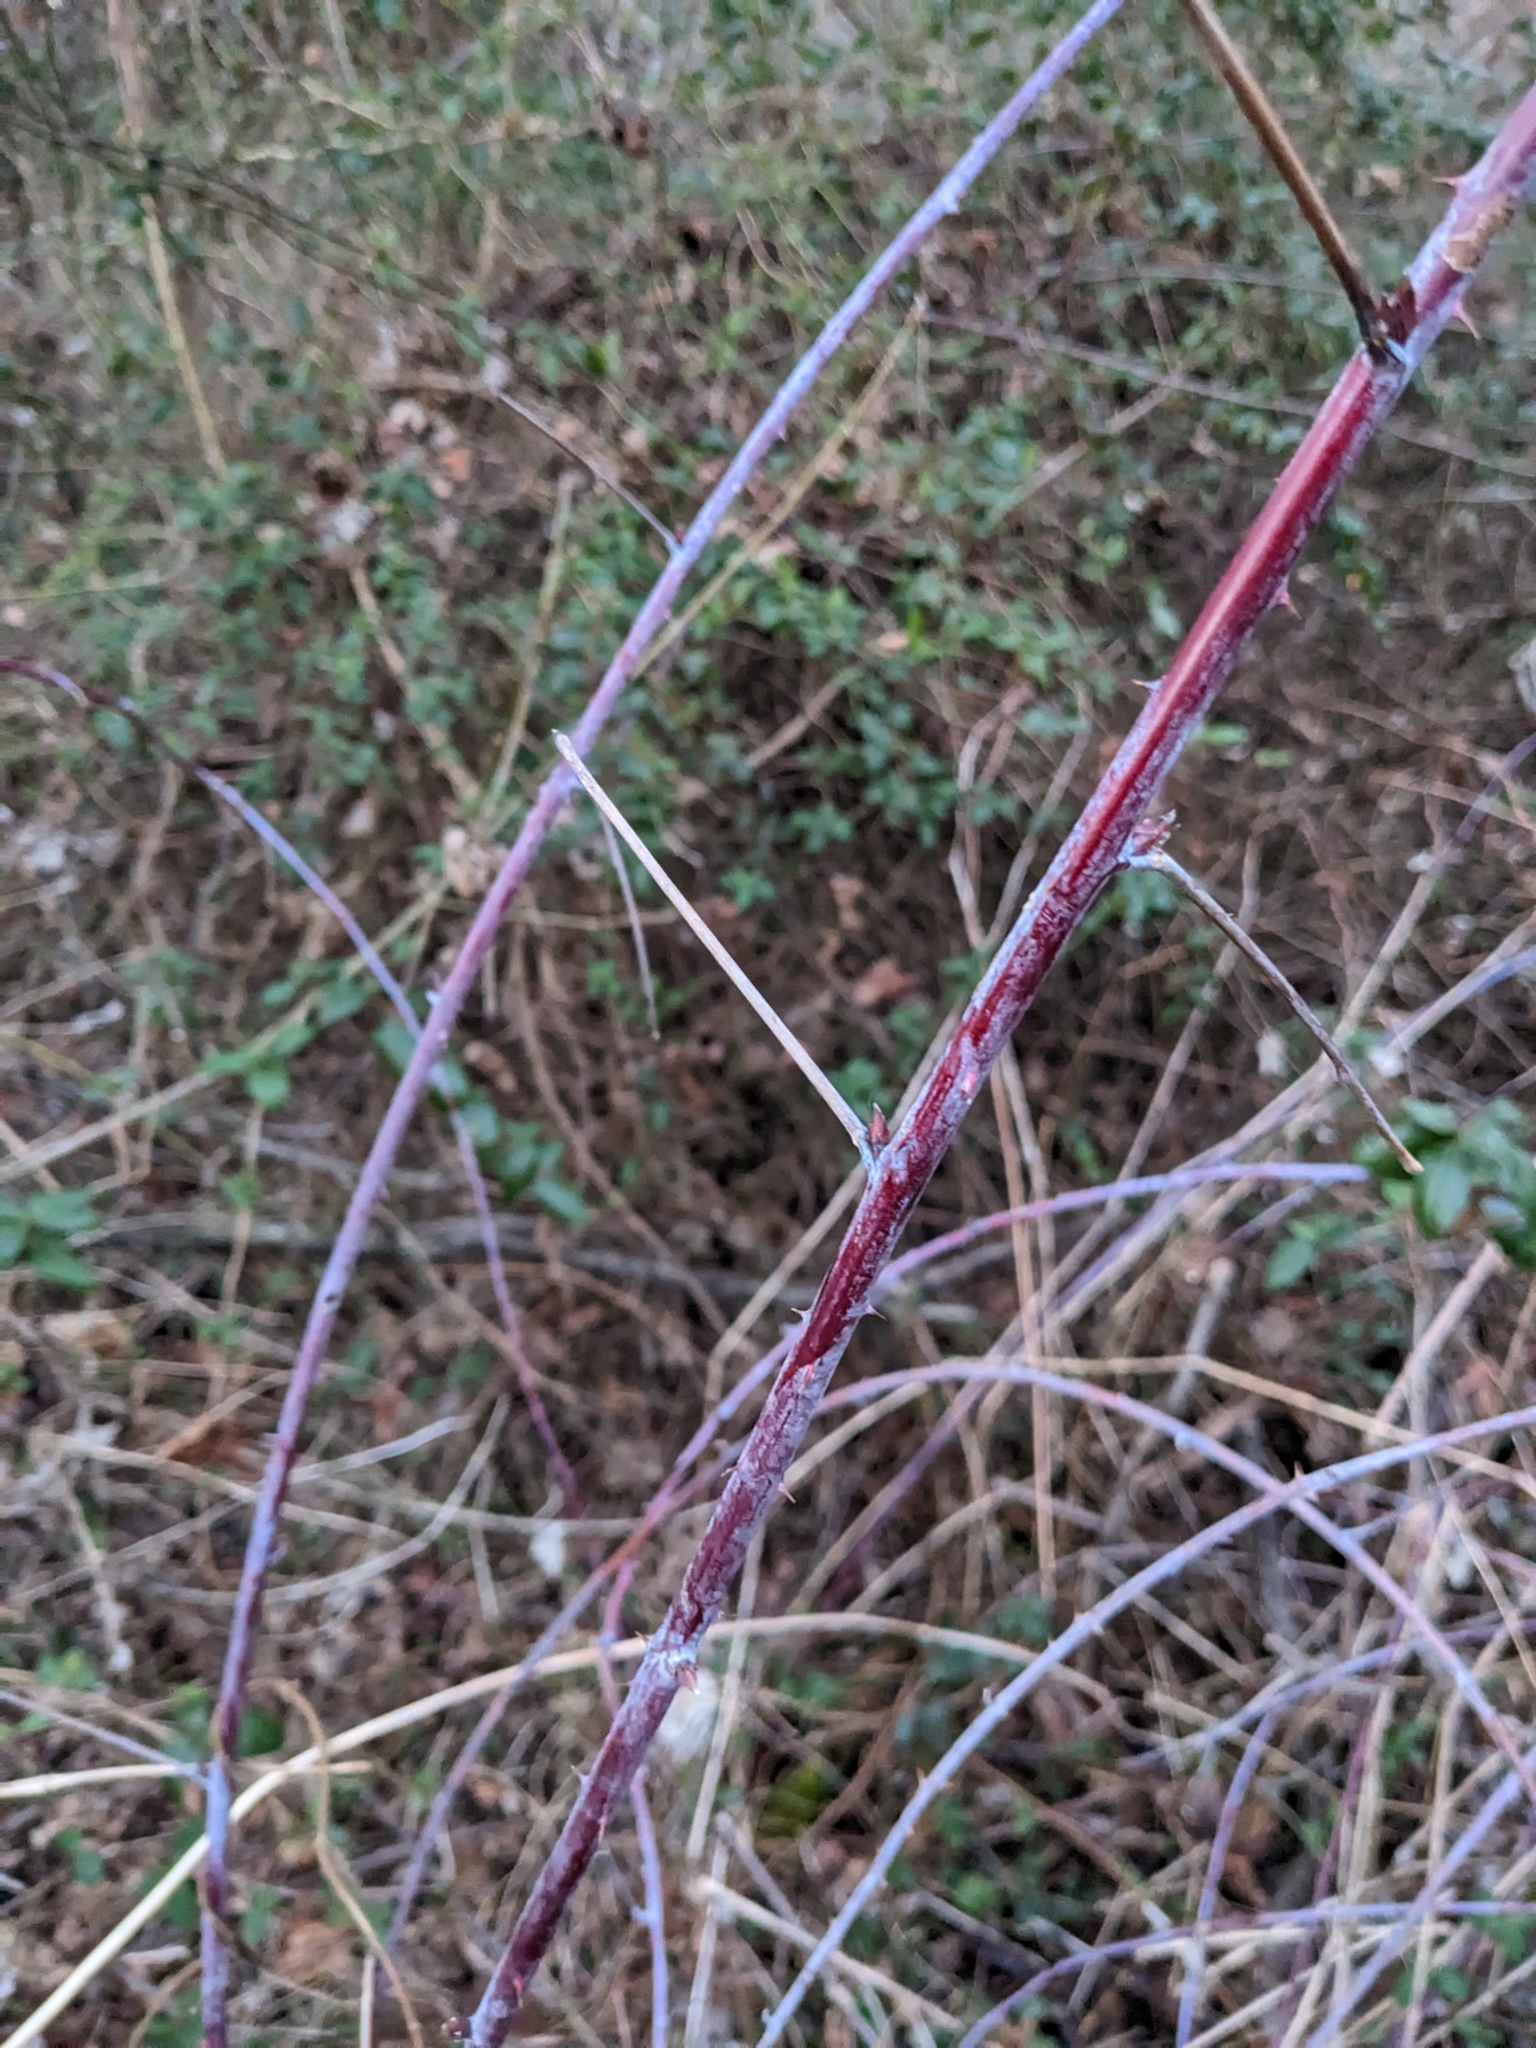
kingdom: Plantae
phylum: Tracheophyta
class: Magnoliopsida
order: Rosales
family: Rosaceae
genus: Rubus
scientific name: Rubus occidentalis
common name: Black raspberry
